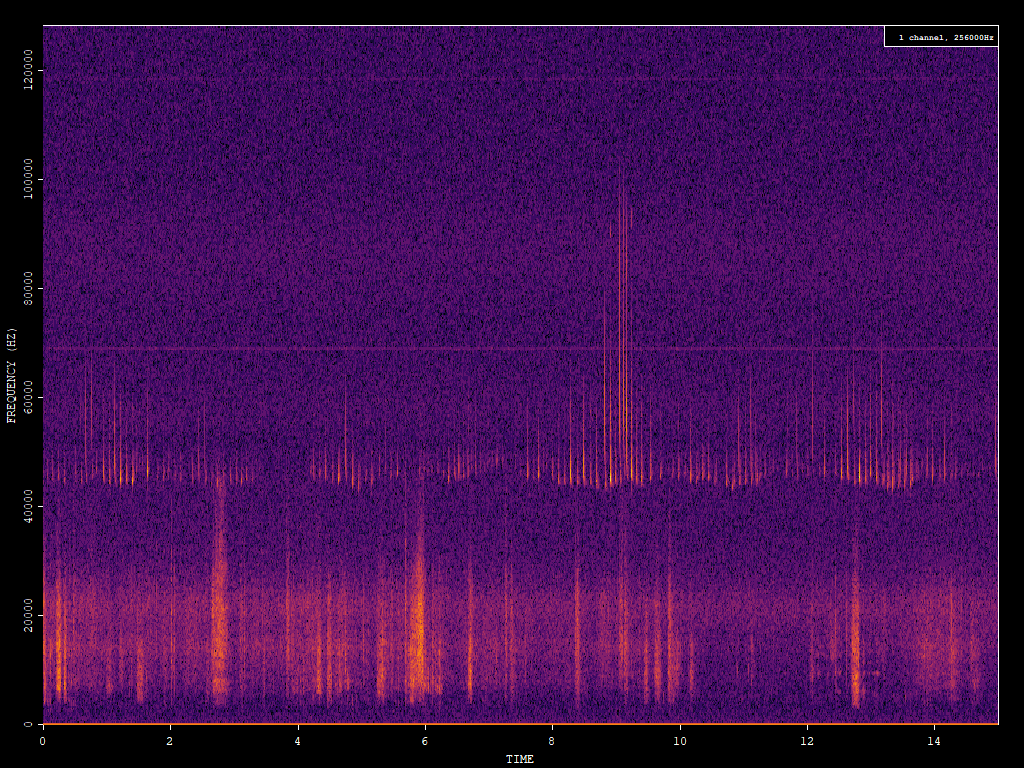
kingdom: Animalia
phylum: Chordata
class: Mammalia
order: Chiroptera
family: Vespertilionidae
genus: Pipistrellus
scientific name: Pipistrellus pipistrellus
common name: Common pipistrelle
